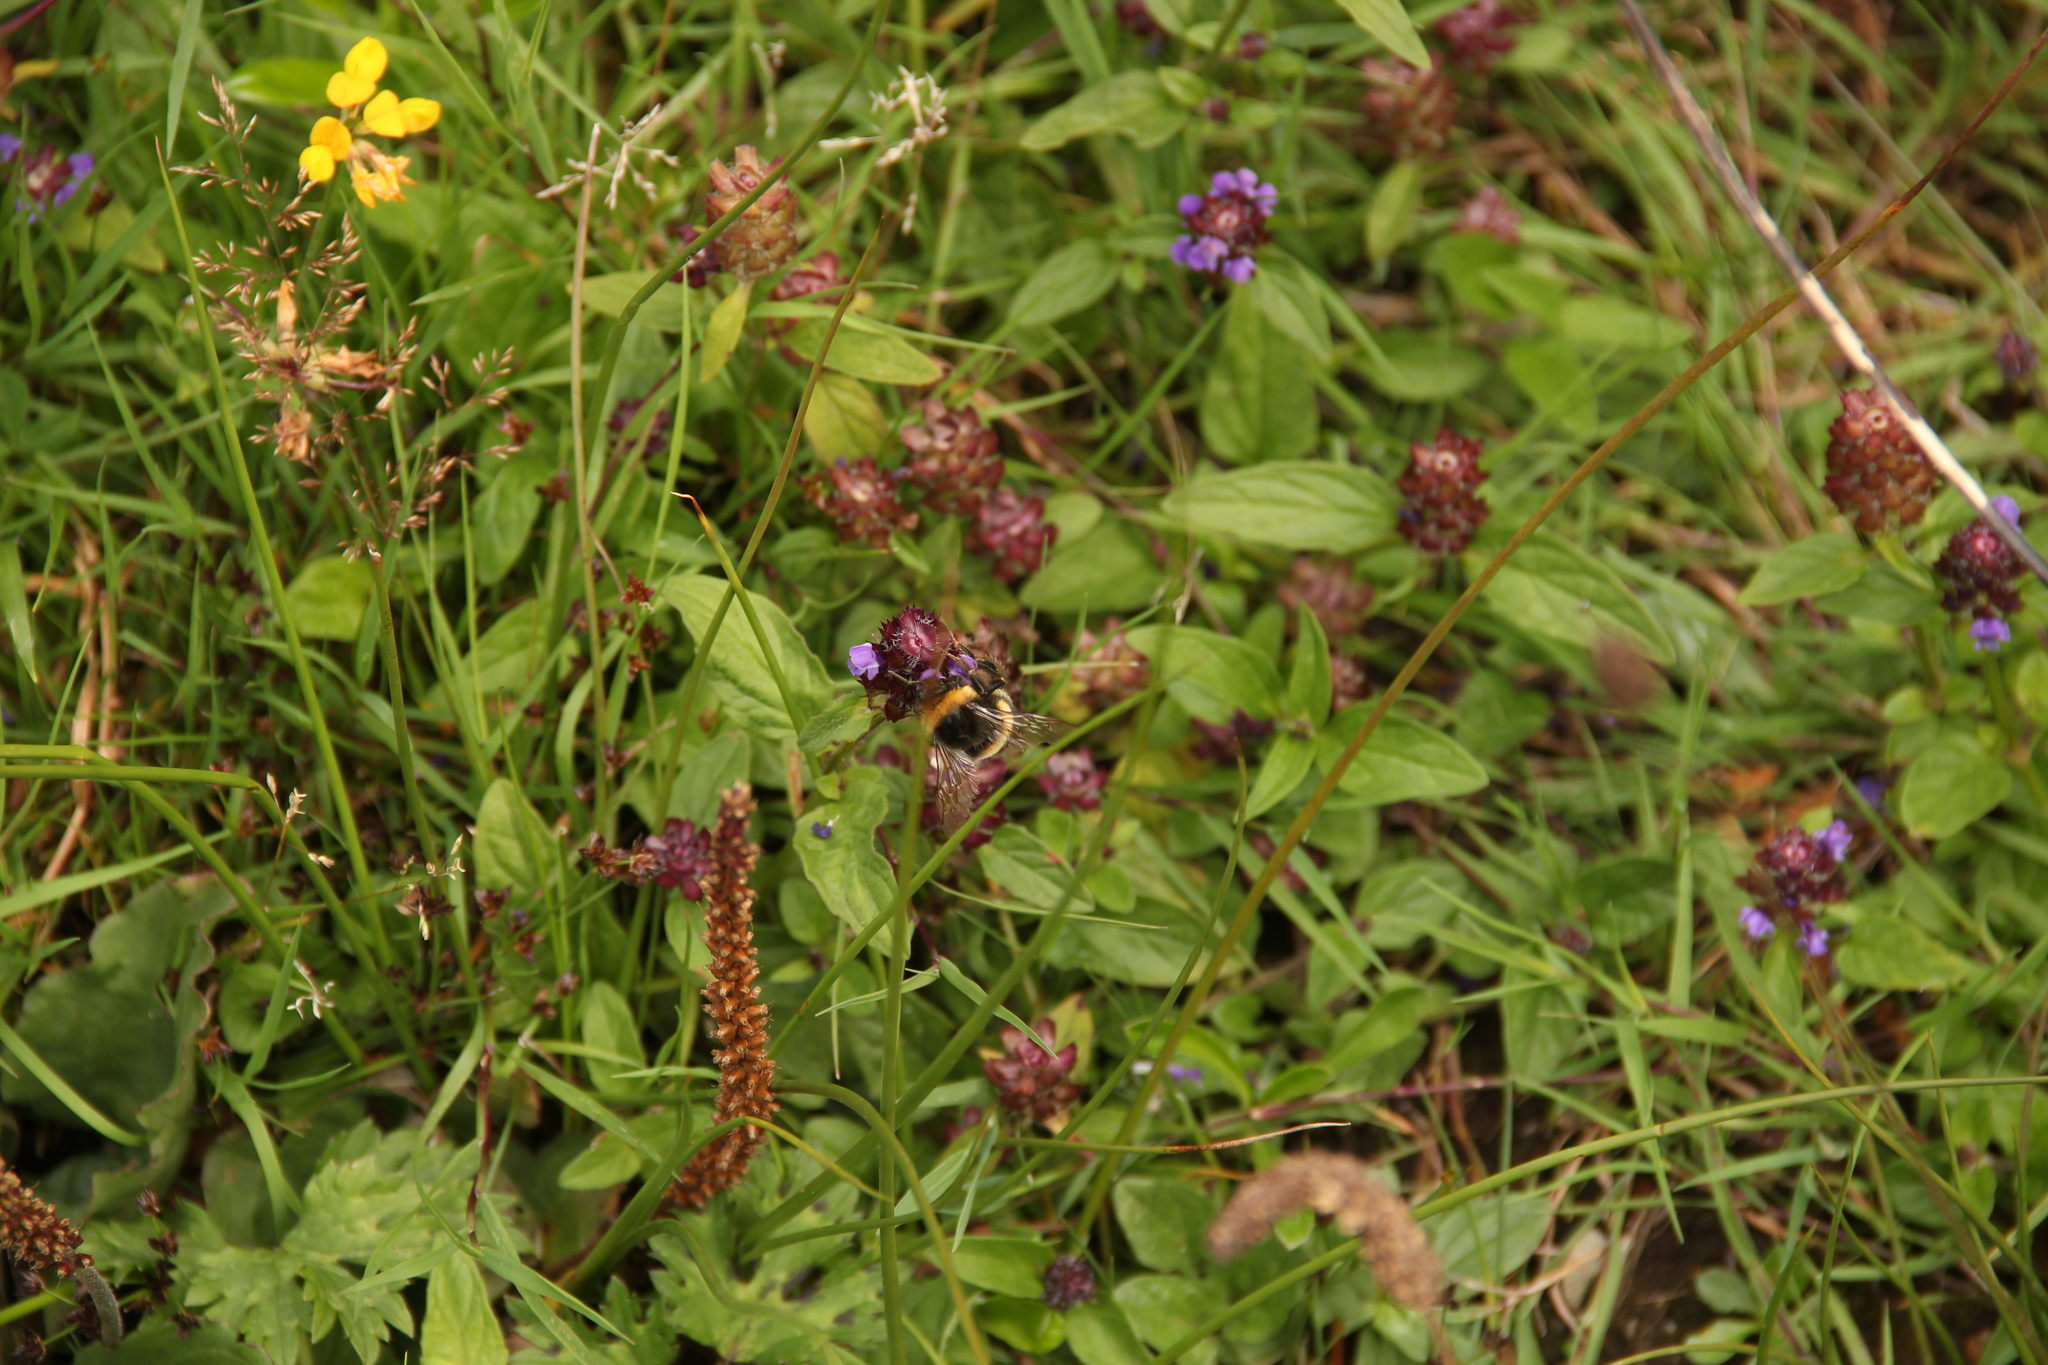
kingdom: Plantae
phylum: Tracheophyta
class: Magnoliopsida
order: Lamiales
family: Lamiaceae
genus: Prunella
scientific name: Prunella vulgaris
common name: Heal-all
